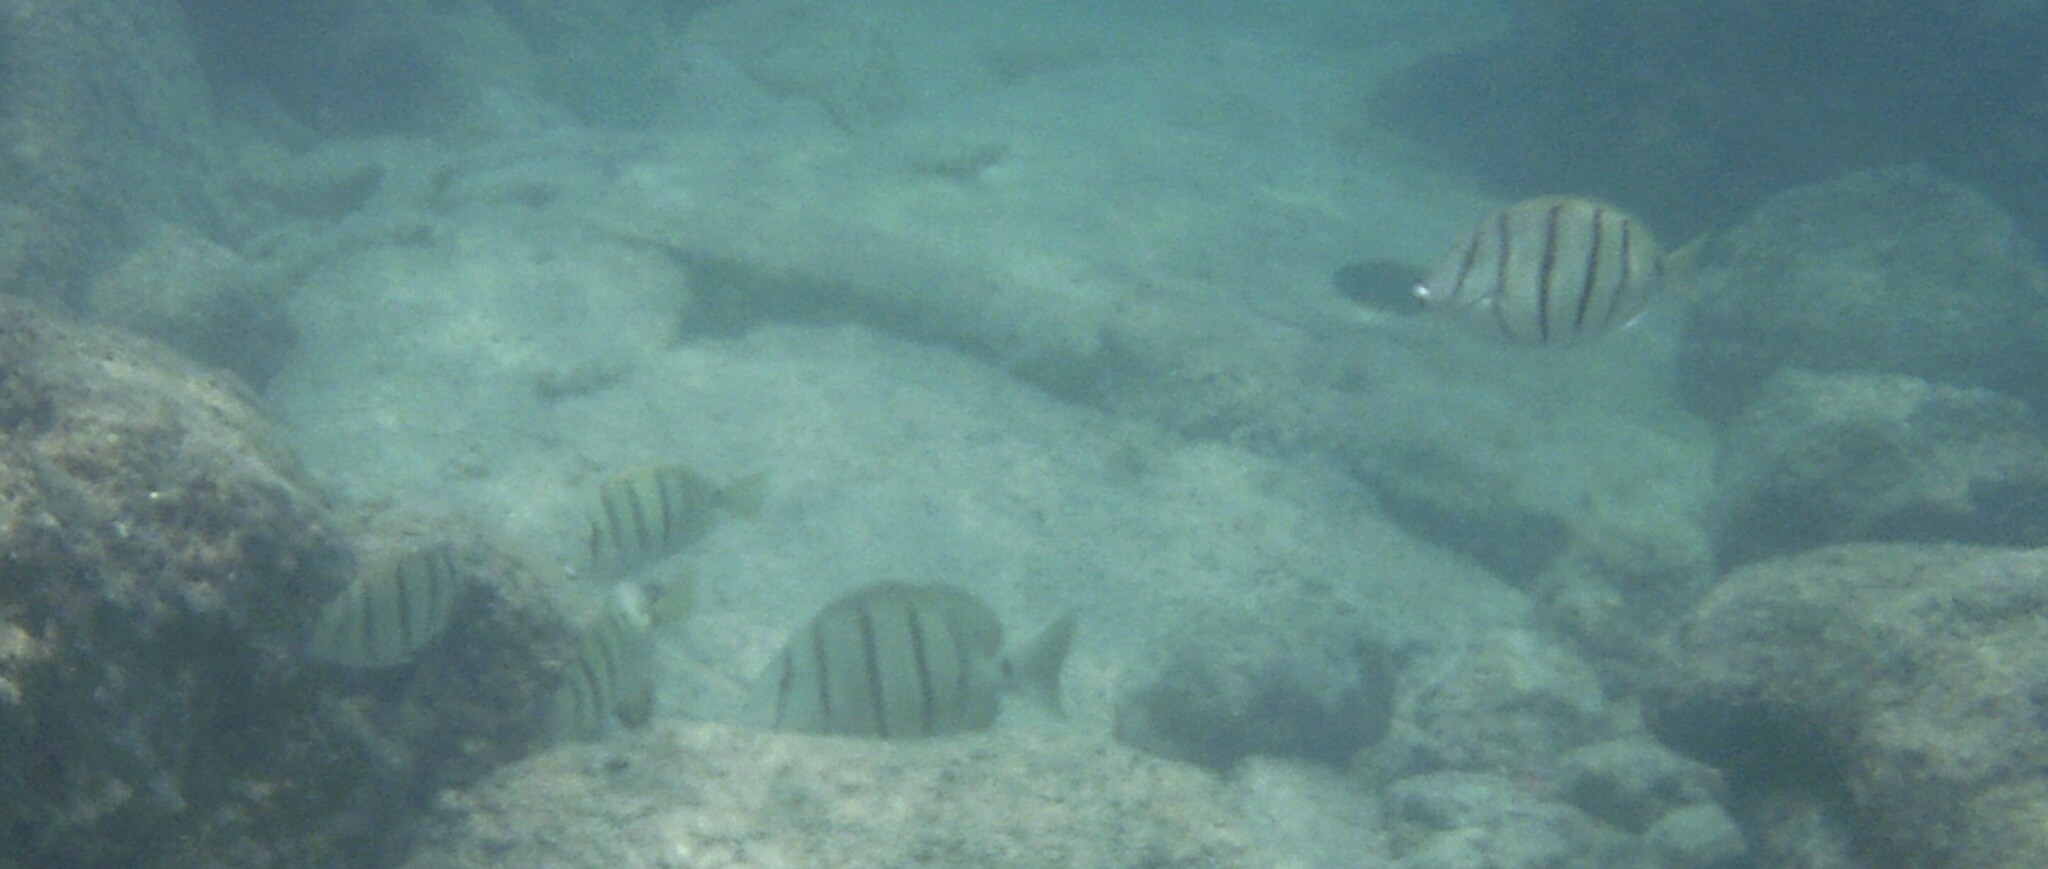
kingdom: Animalia
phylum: Chordata
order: Perciformes
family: Acanthuridae
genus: Acanthurus
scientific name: Acanthurus triostegus
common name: Convict surgeonfish
